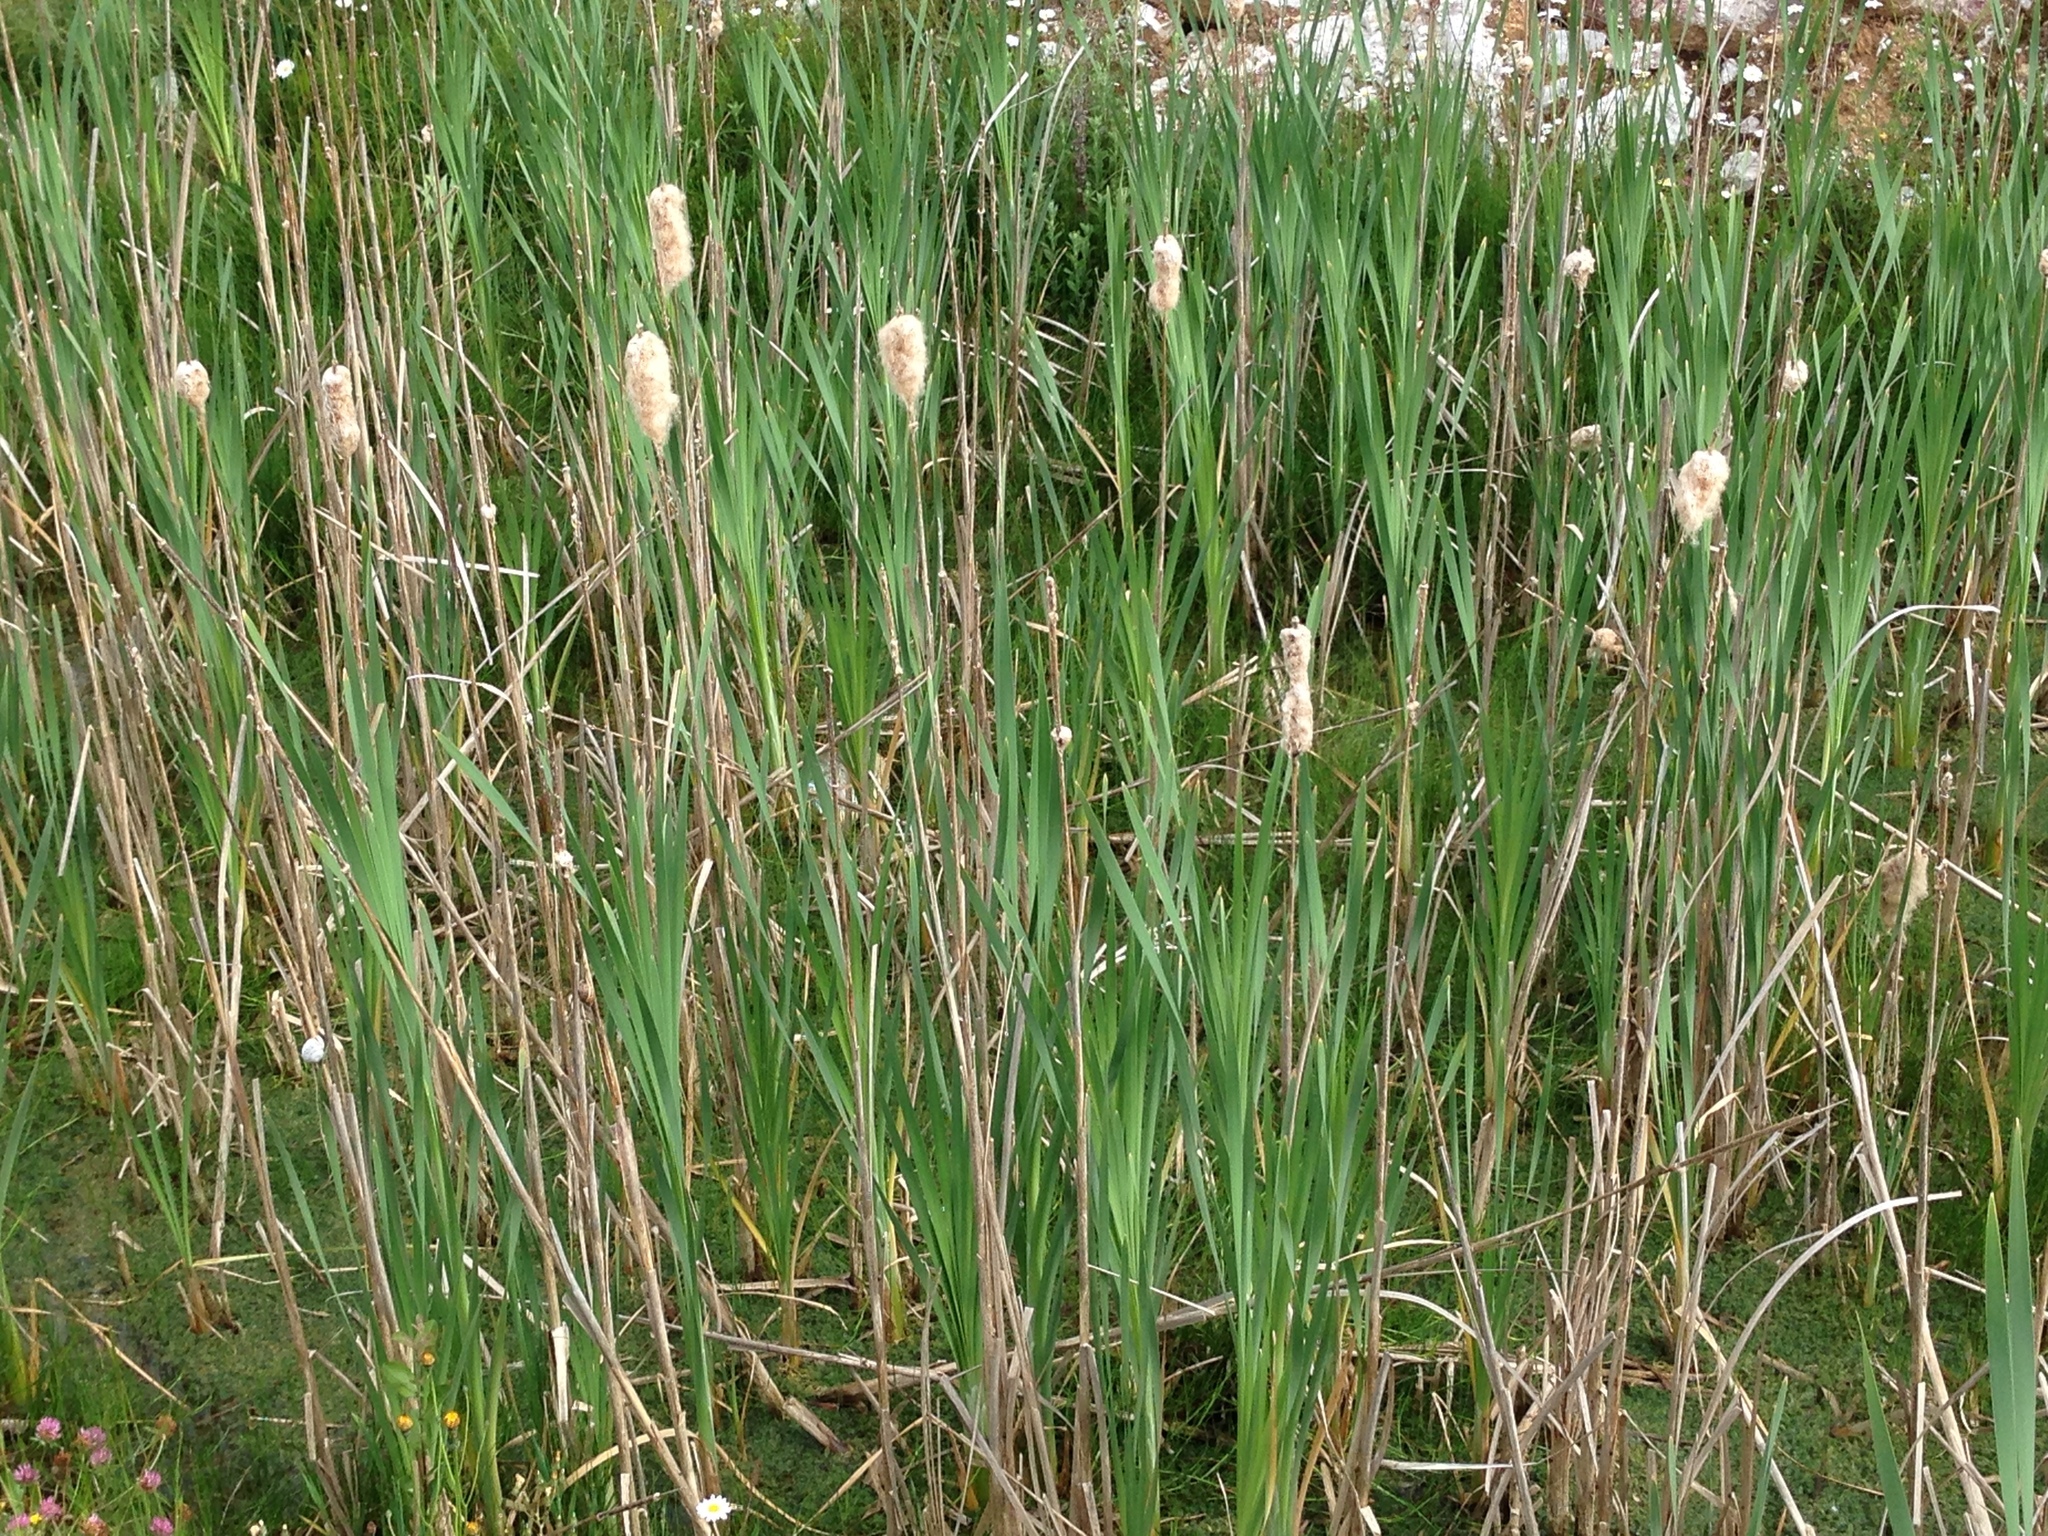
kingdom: Plantae
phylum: Tracheophyta
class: Liliopsida
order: Poales
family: Typhaceae
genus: Typha
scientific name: Typha
